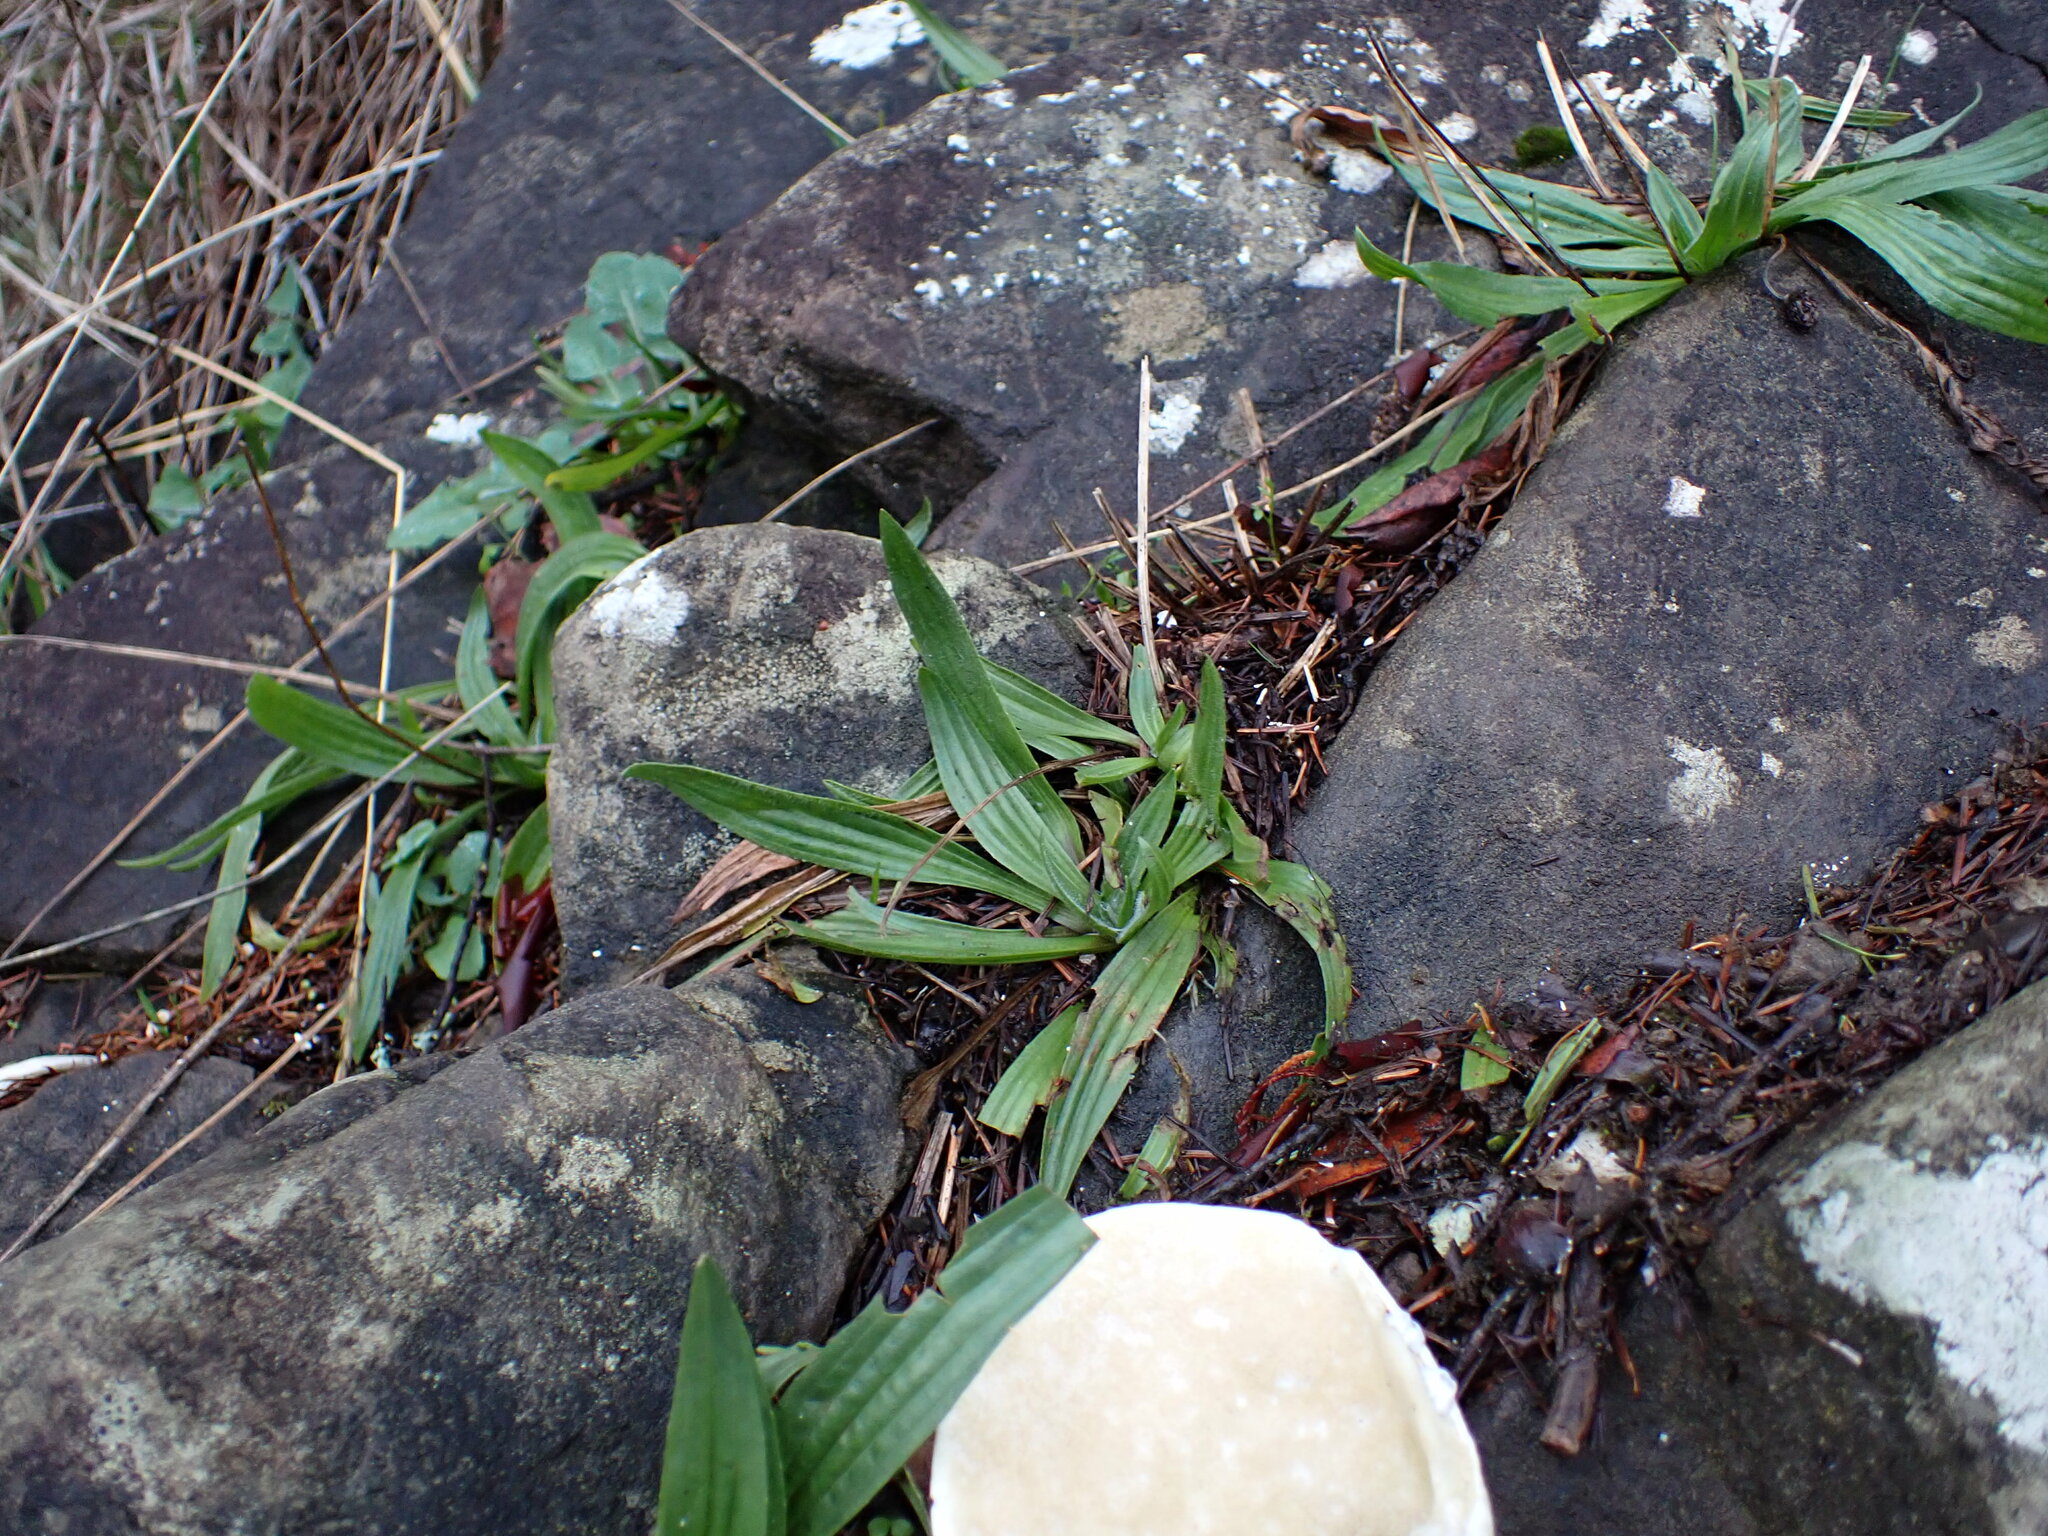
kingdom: Plantae
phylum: Tracheophyta
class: Magnoliopsida
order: Lamiales
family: Plantaginaceae
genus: Plantago
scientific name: Plantago lanceolata
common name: Ribwort plantain
